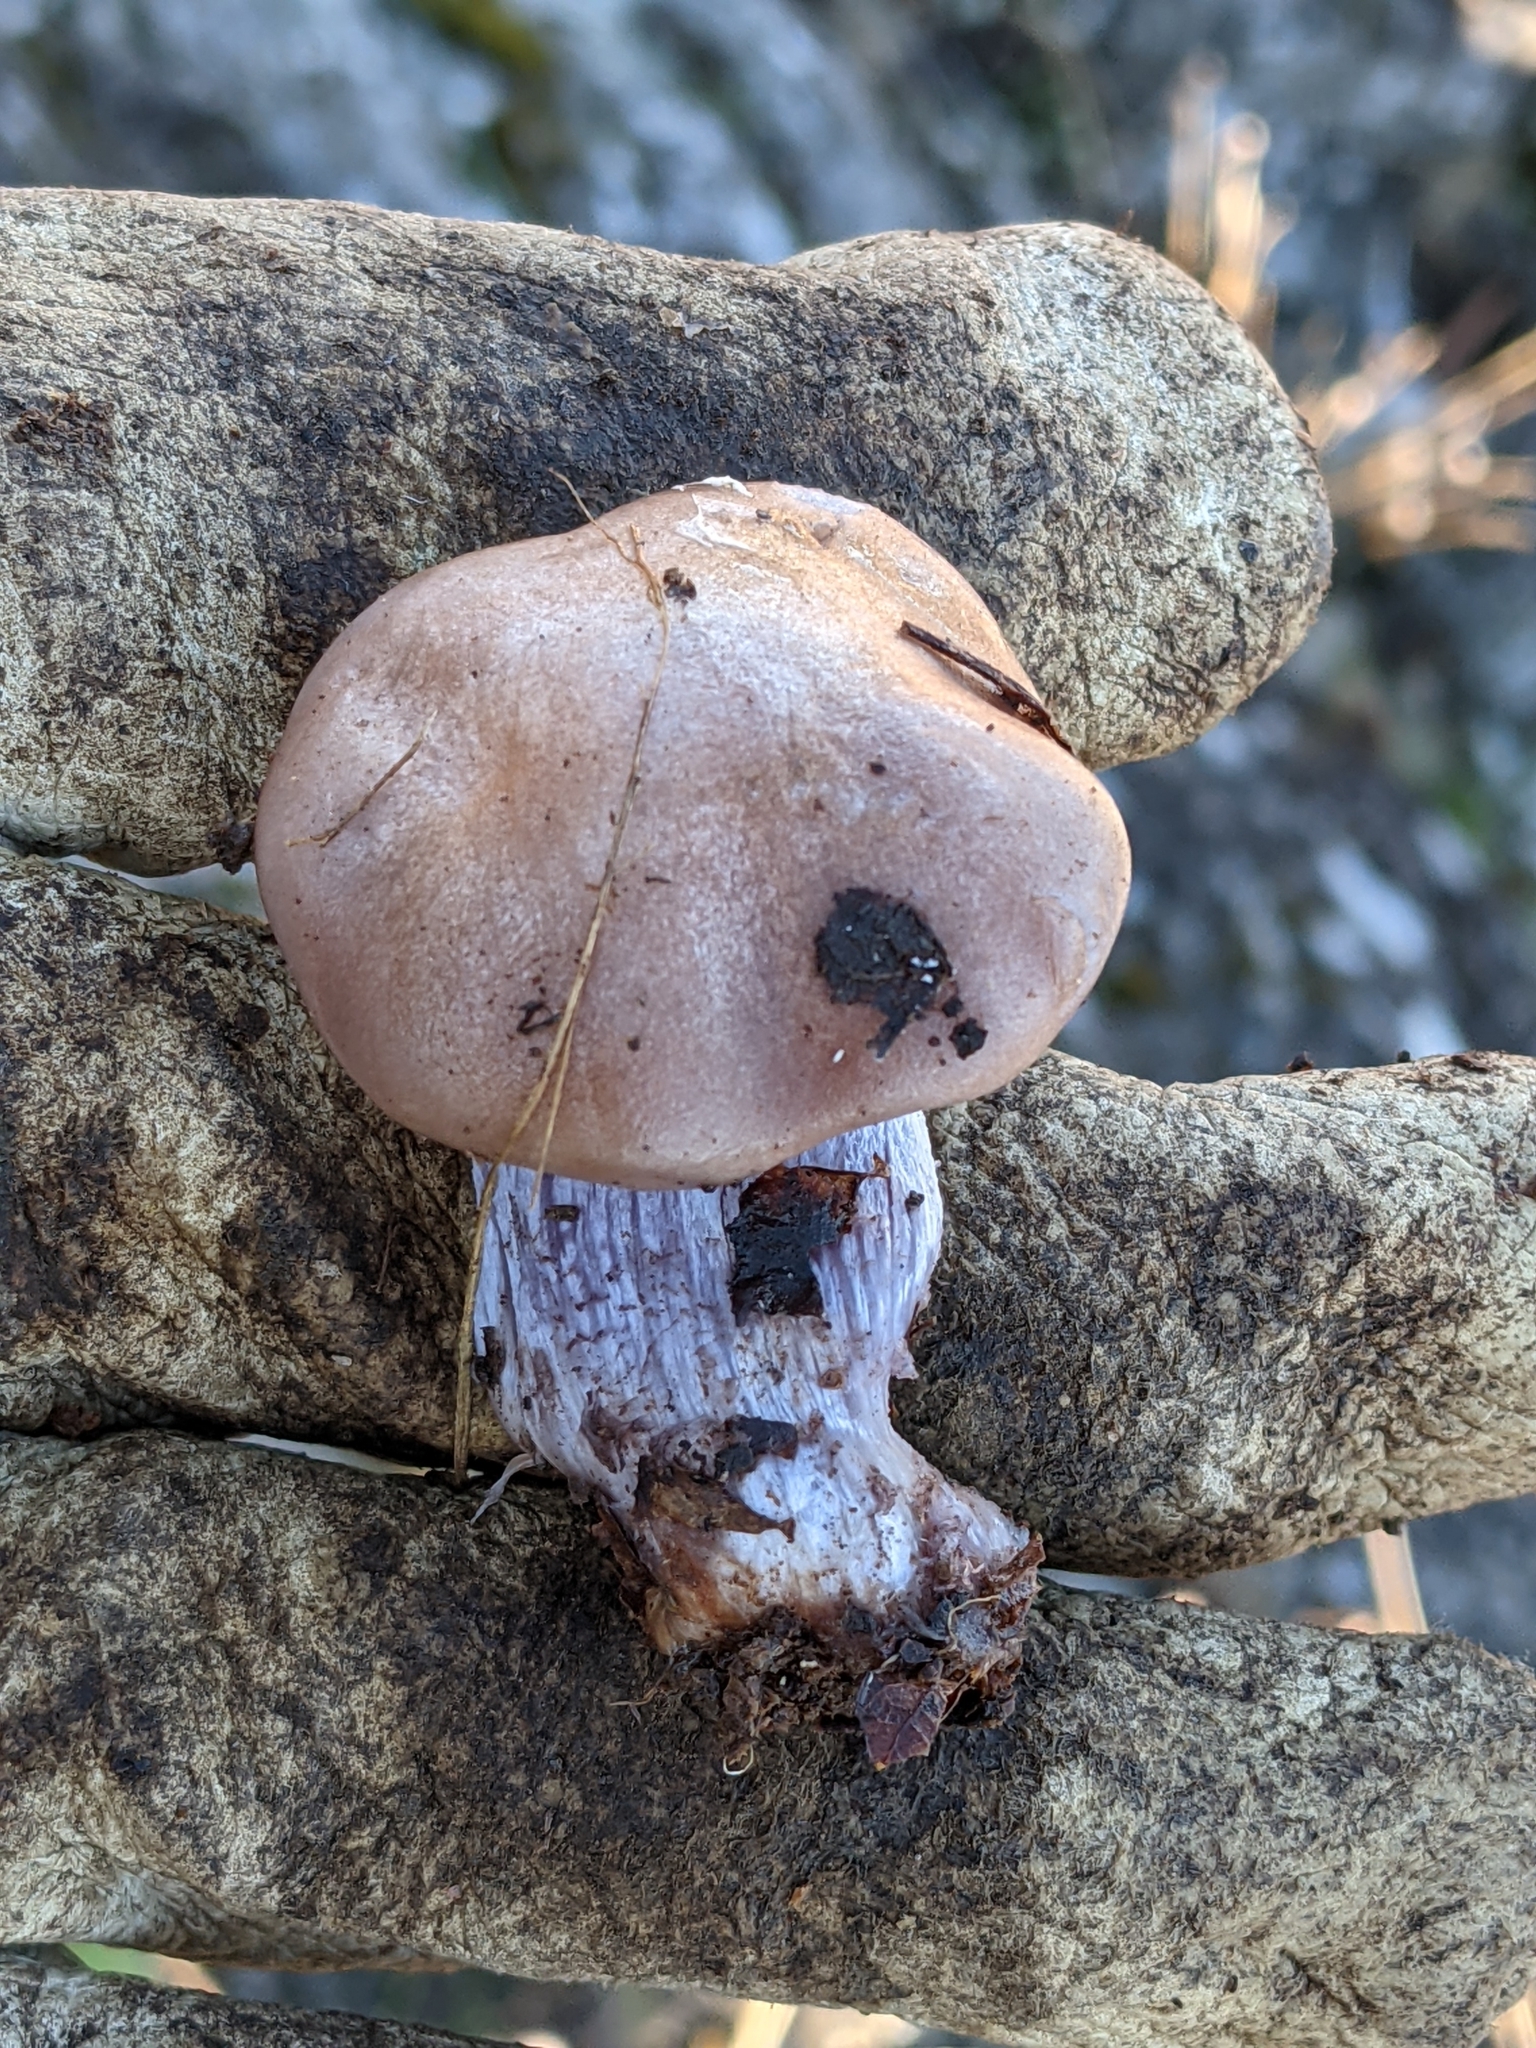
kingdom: Fungi
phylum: Basidiomycota
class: Agaricomycetes
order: Agaricales
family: Tricholomataceae
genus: Collybia
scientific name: Collybia
